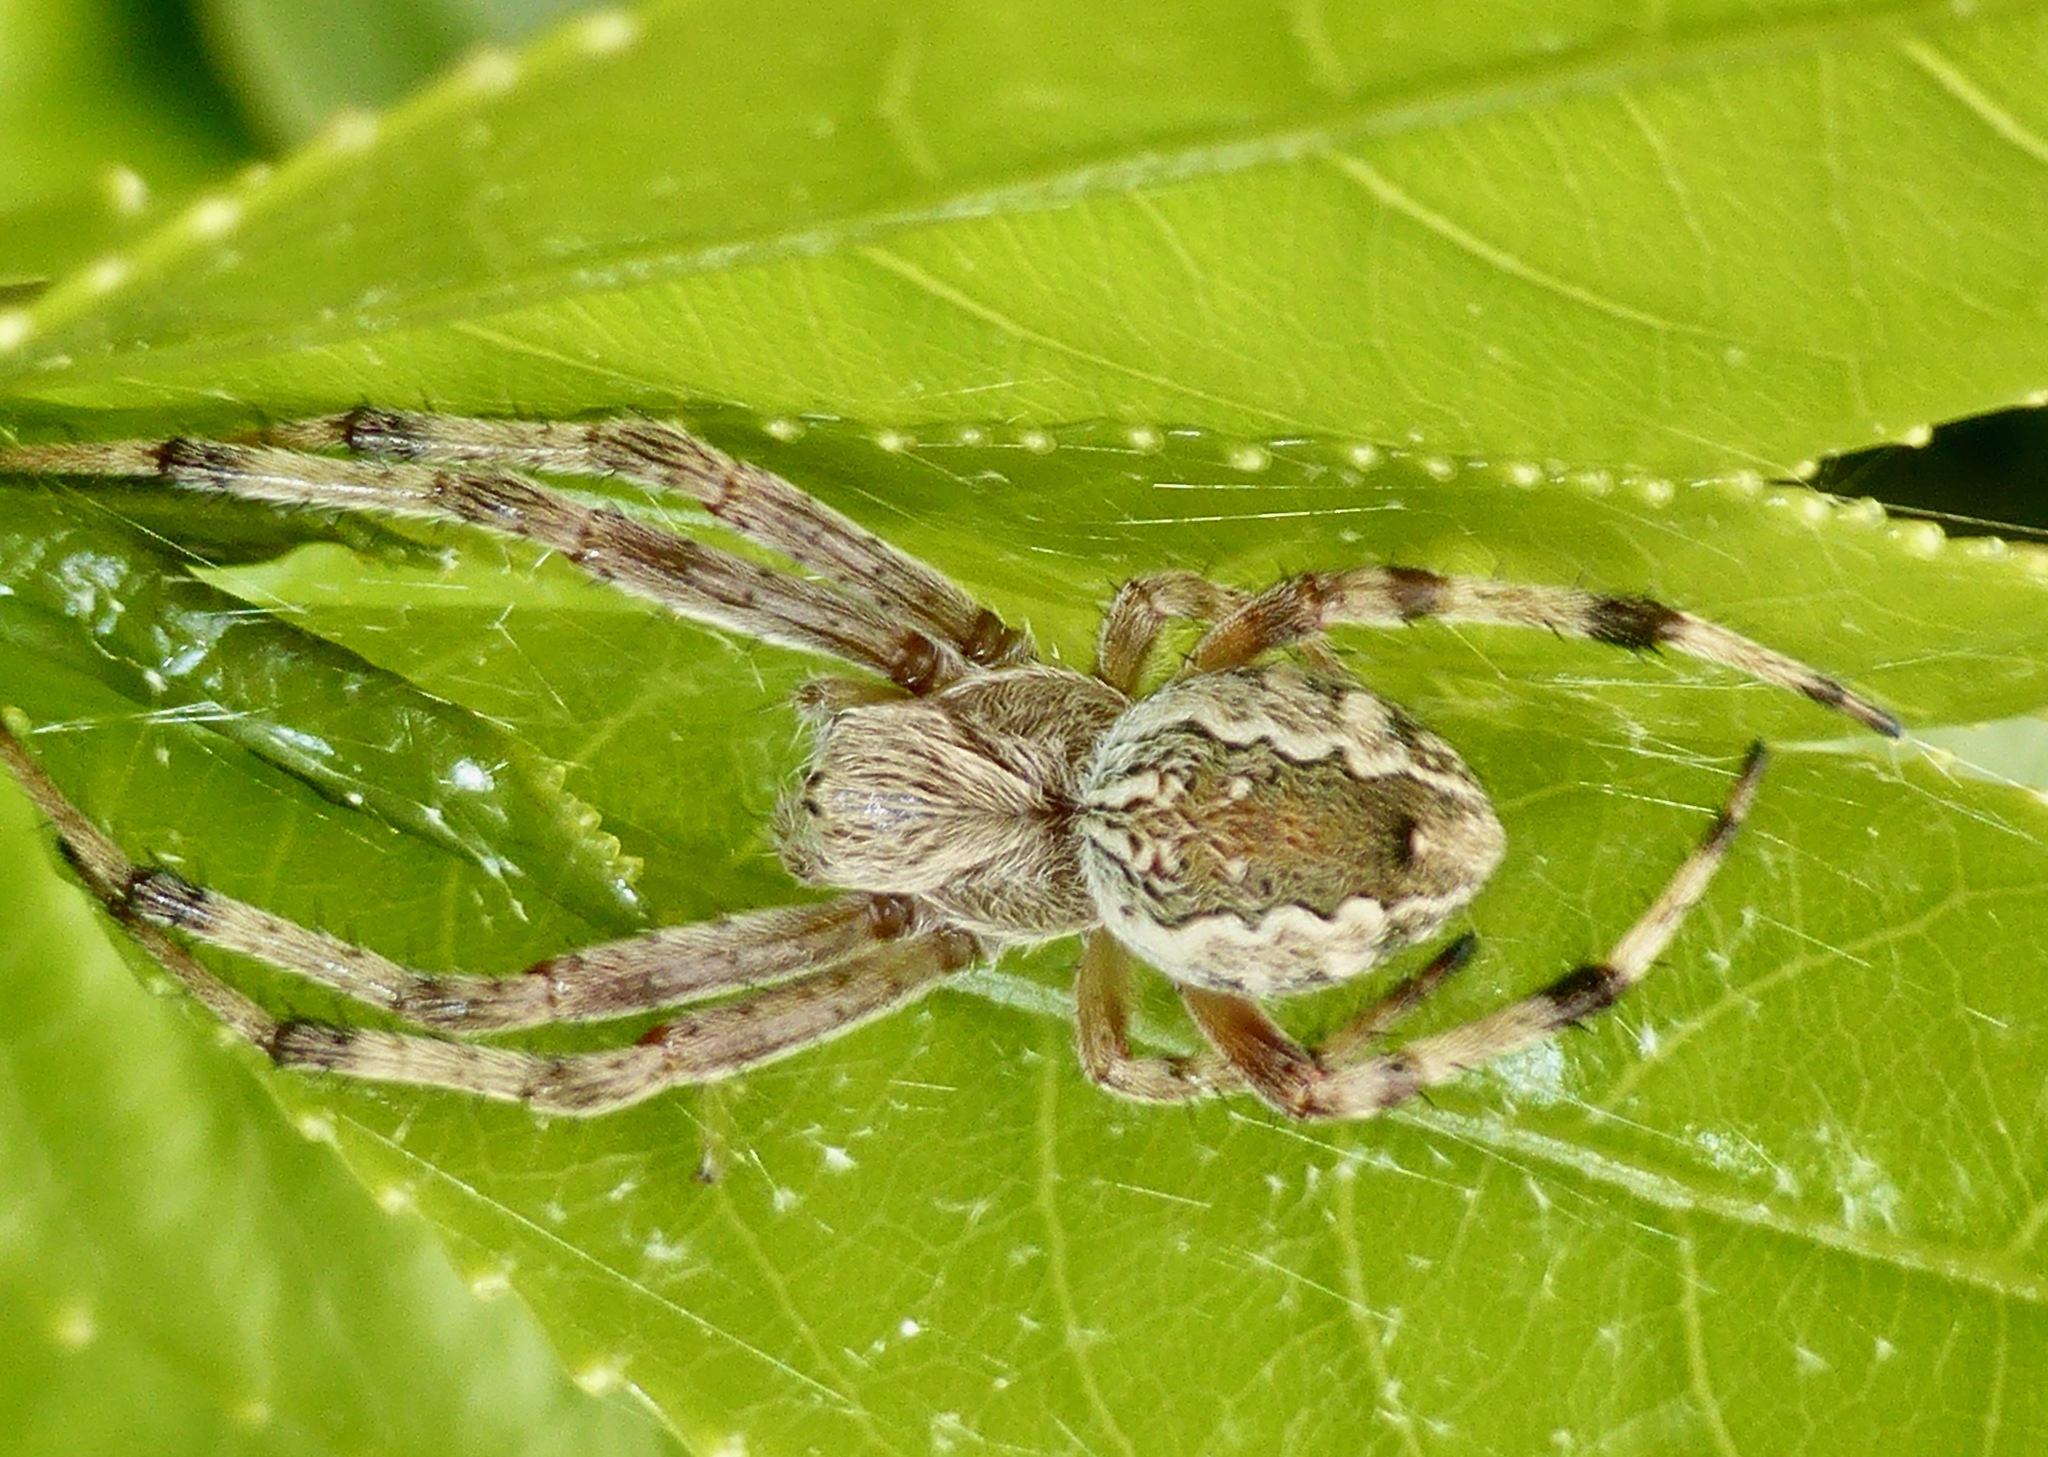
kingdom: Animalia
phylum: Arthropoda
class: Arachnida
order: Araneae
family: Araneidae
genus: Salsa
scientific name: Salsa fuliginata
